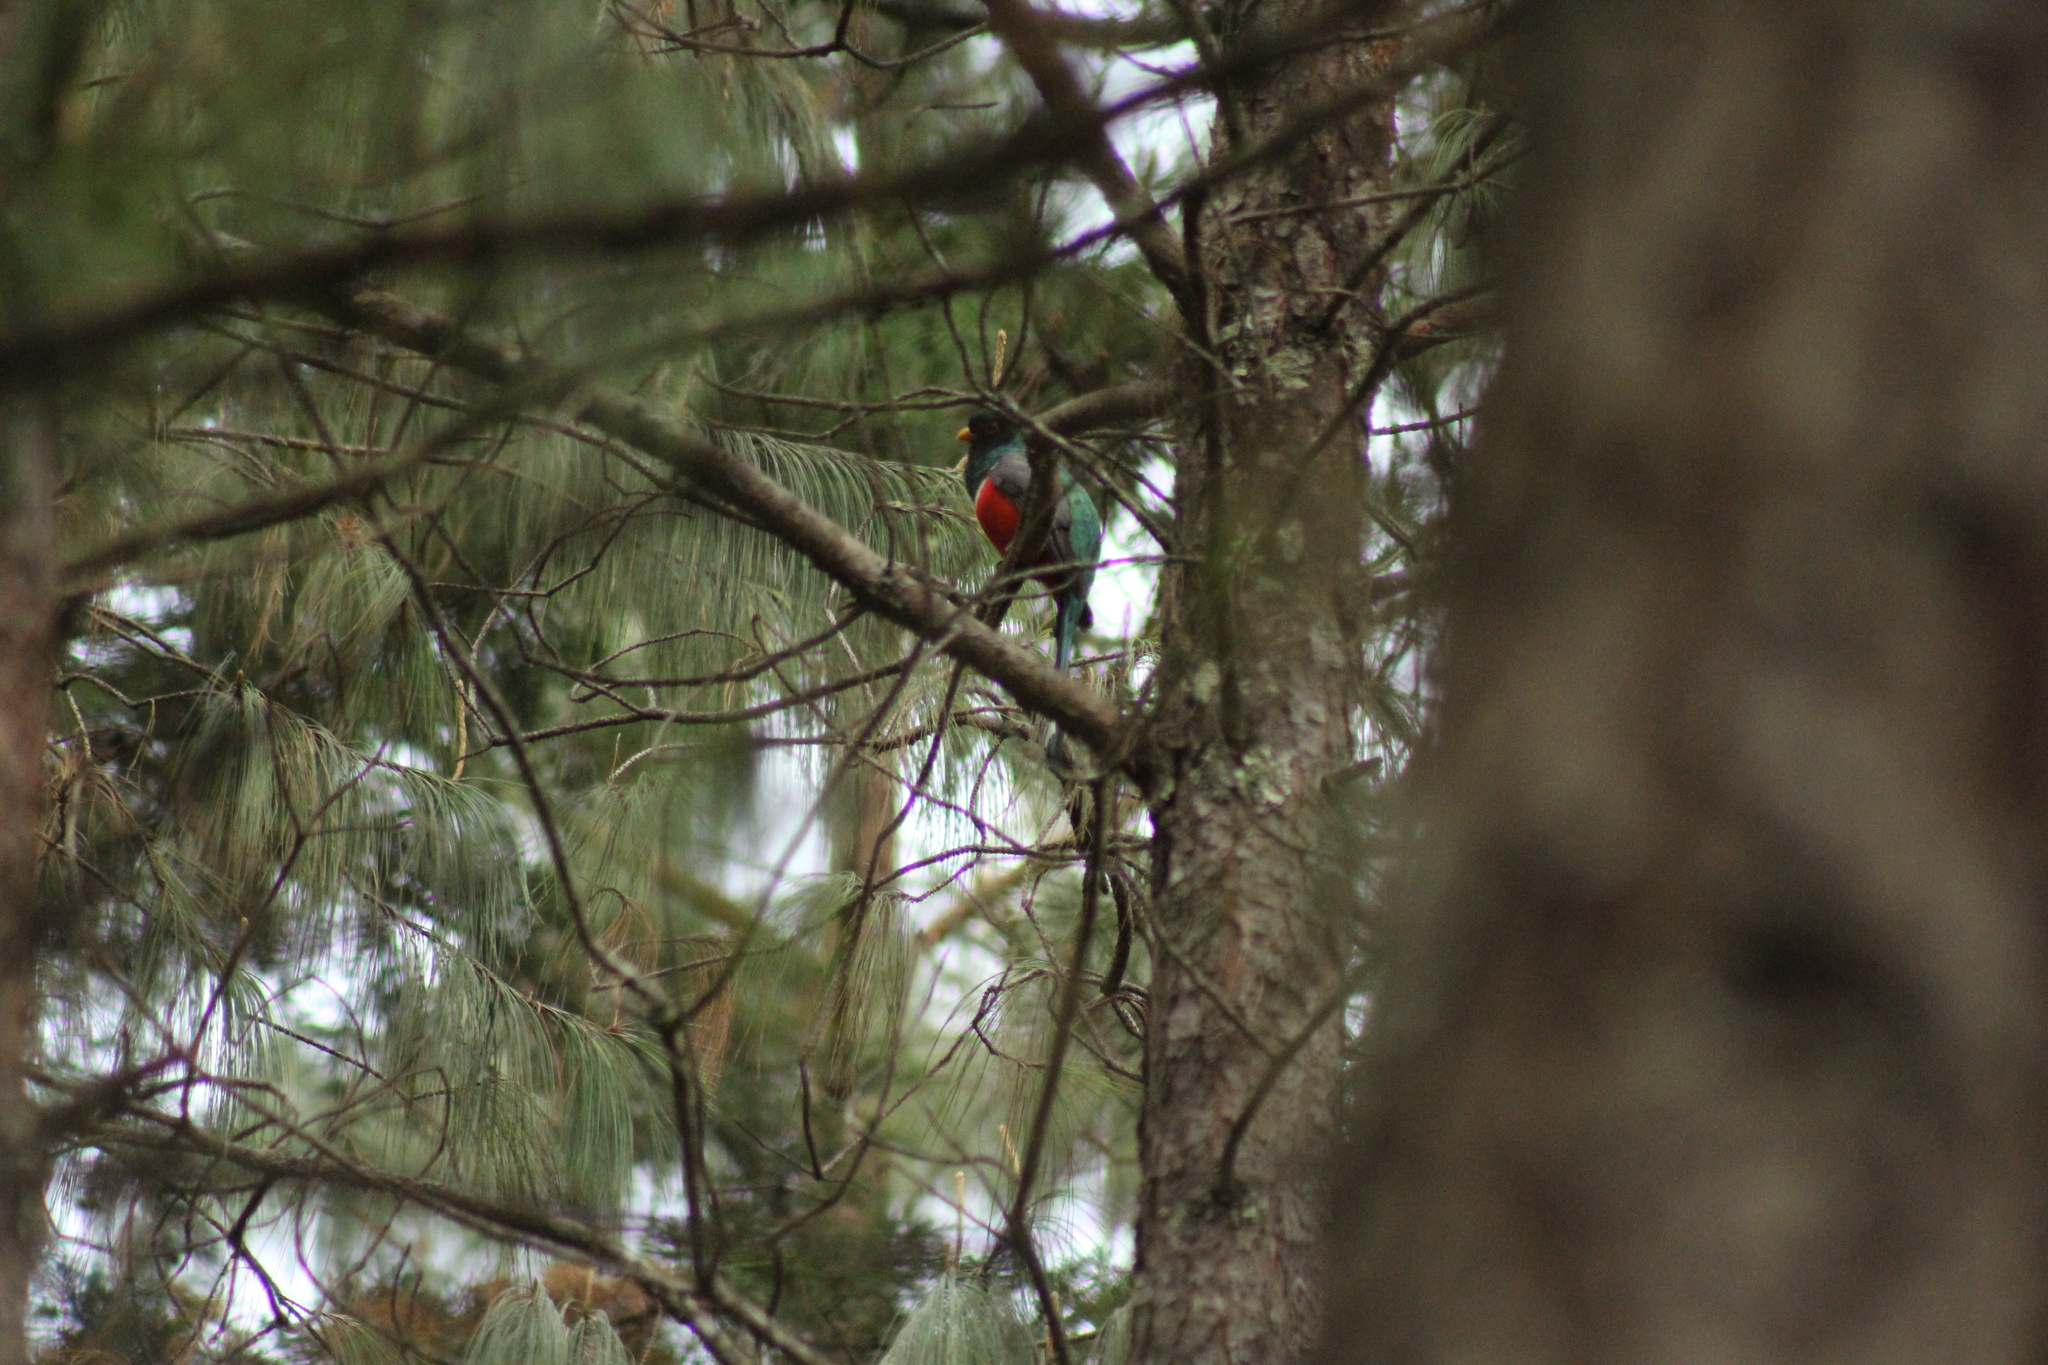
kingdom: Animalia
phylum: Chordata
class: Aves
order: Trogoniformes
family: Trogonidae
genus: Trogon
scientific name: Trogon mexicanus
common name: Mountain trogon
